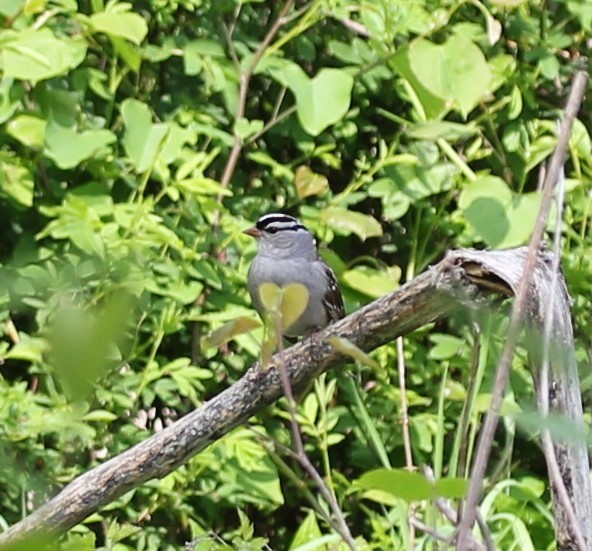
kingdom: Animalia
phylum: Chordata
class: Aves
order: Passeriformes
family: Passerellidae
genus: Zonotrichia
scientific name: Zonotrichia leucophrys
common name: White-crowned sparrow
